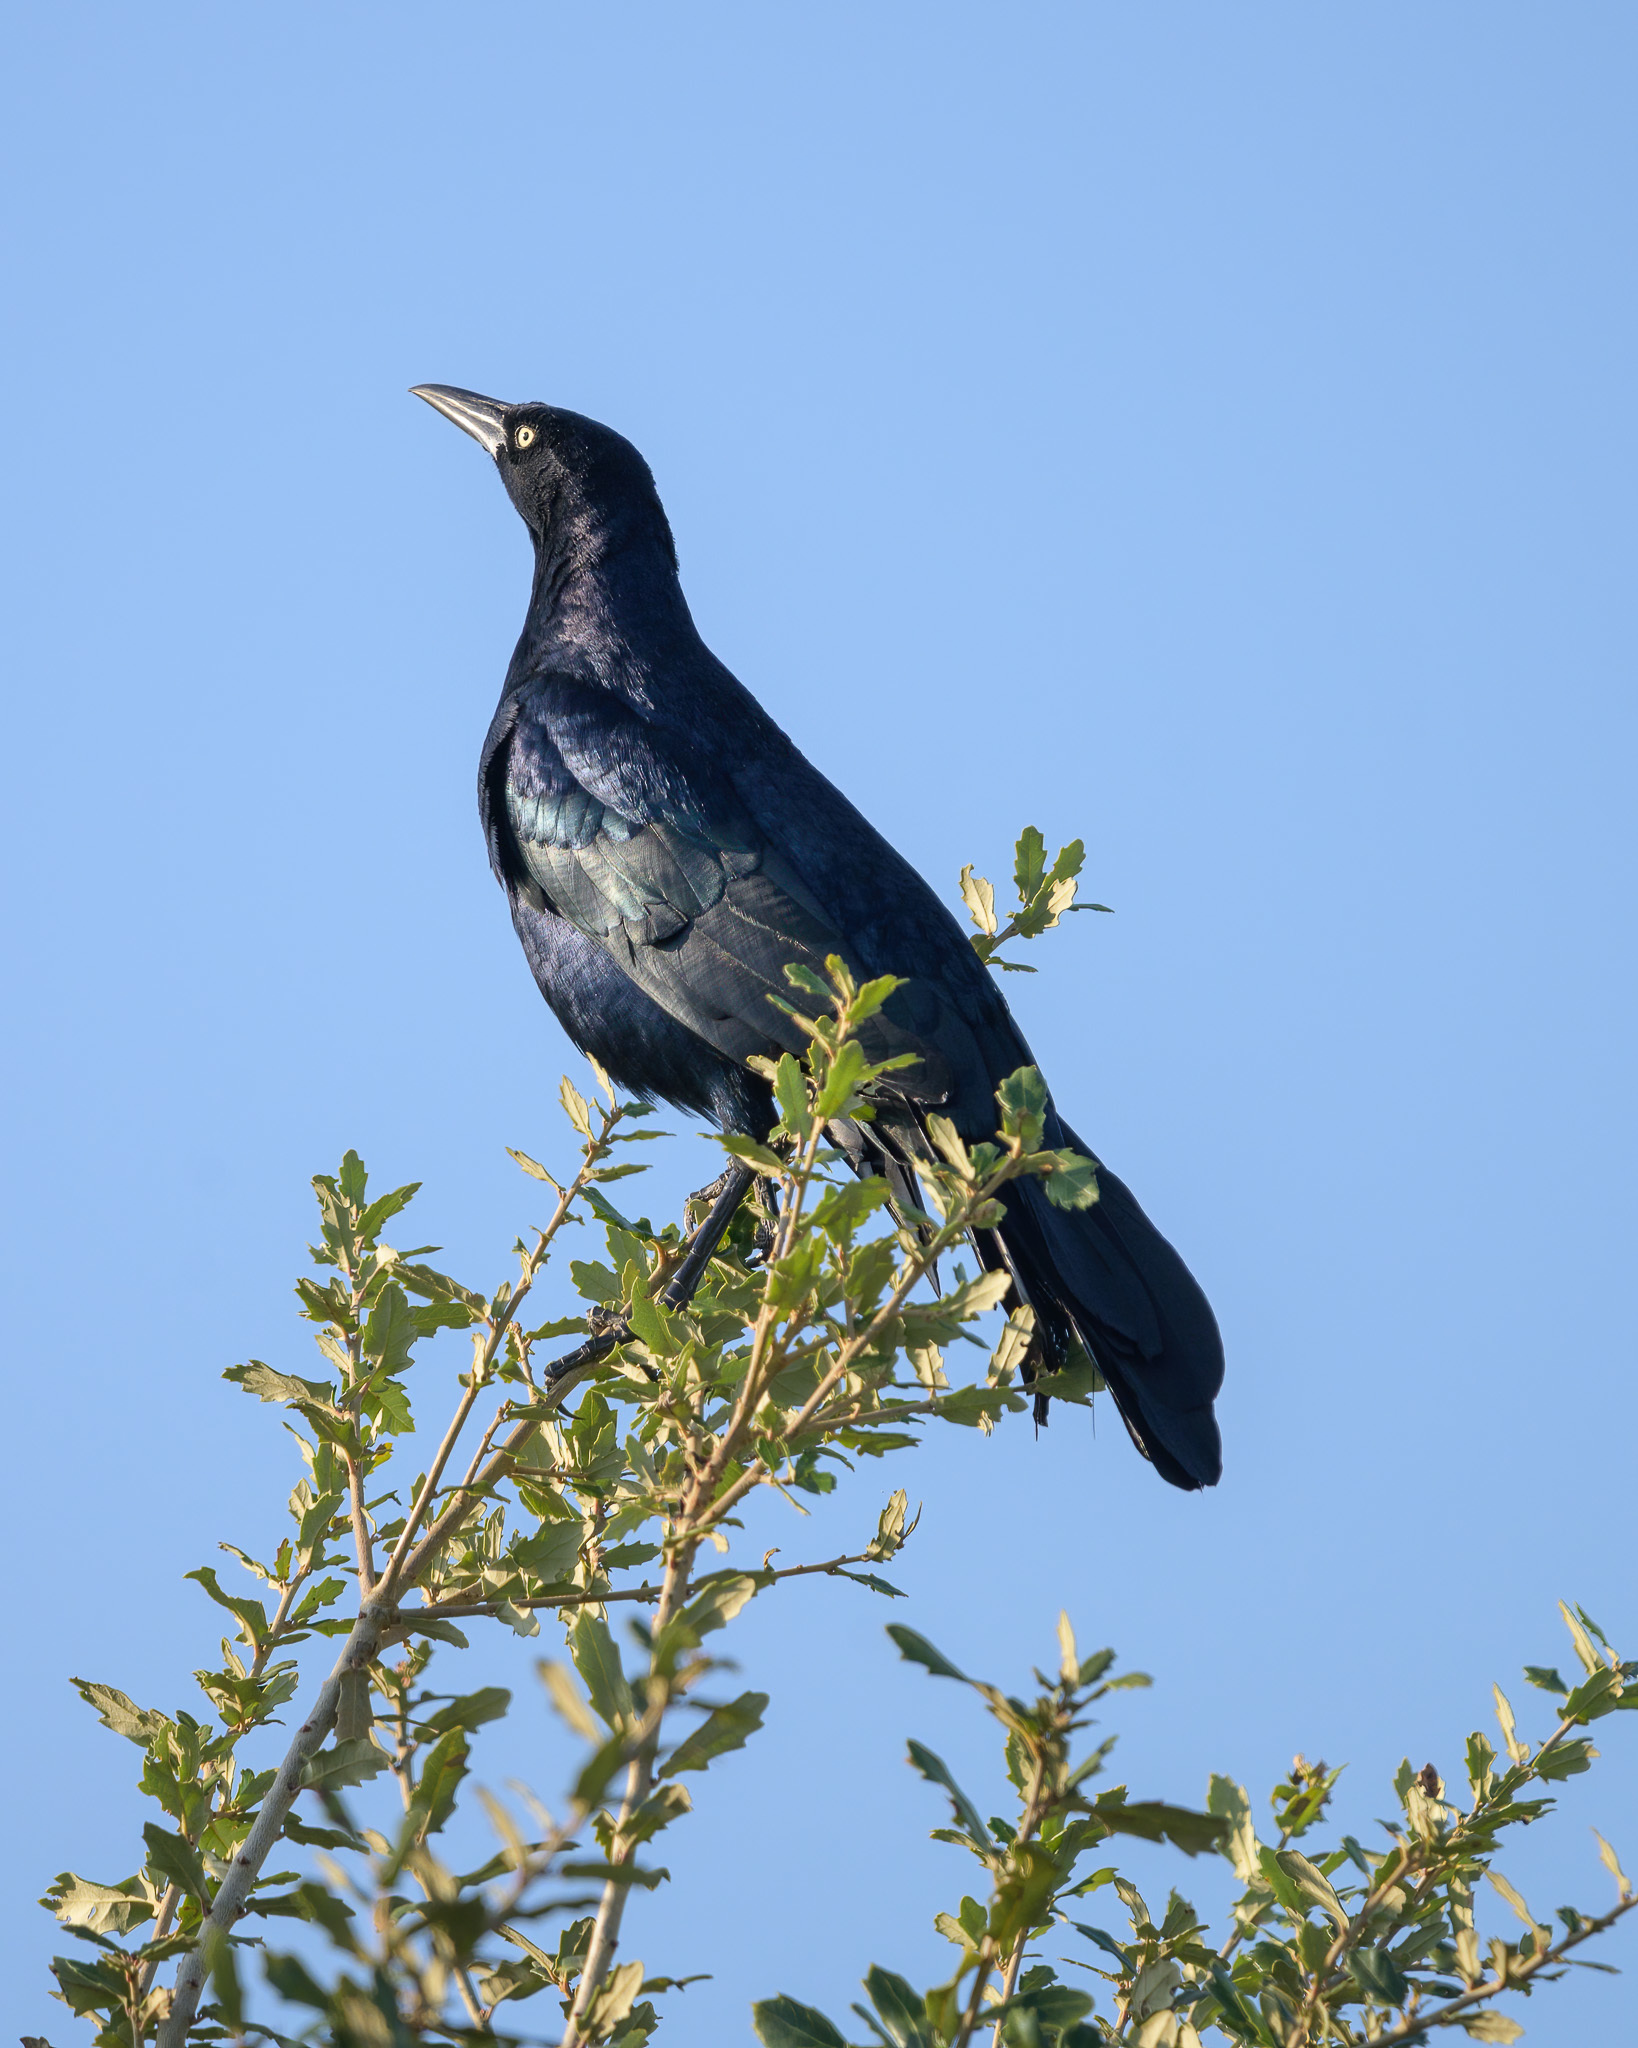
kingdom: Animalia
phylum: Chordata
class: Aves
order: Passeriformes
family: Icteridae
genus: Quiscalus
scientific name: Quiscalus mexicanus
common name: Great-tailed grackle
